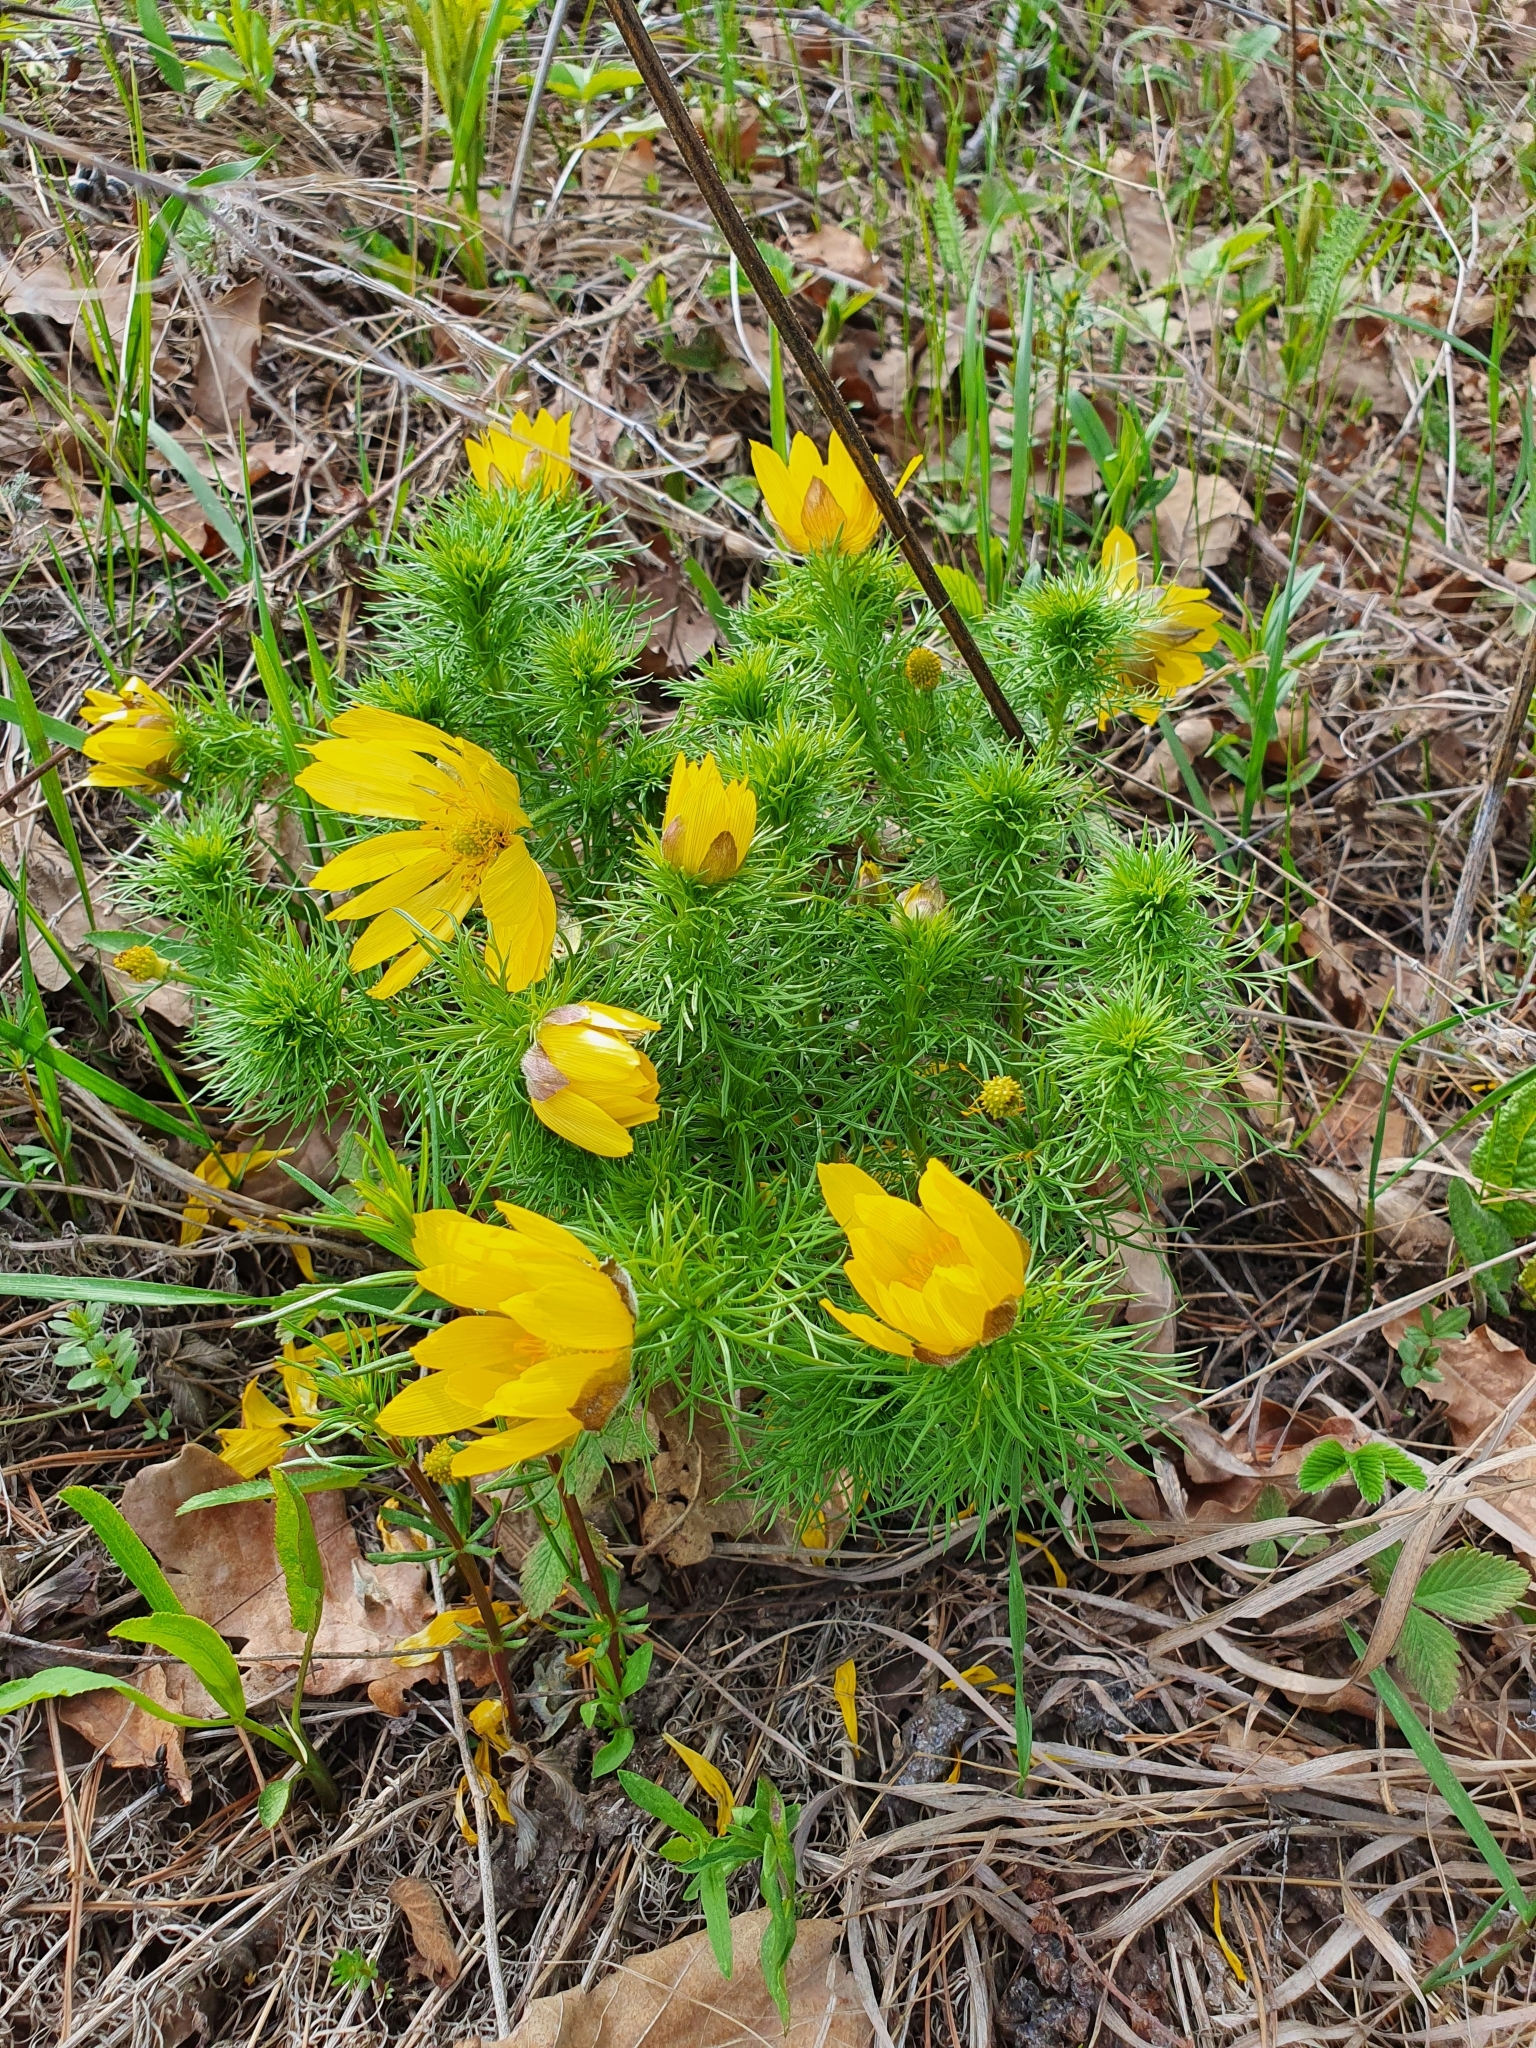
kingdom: Plantae
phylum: Tracheophyta
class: Magnoliopsida
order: Ranunculales
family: Ranunculaceae
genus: Adonis
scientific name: Adonis vernalis
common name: Yellow pheasants-eye
